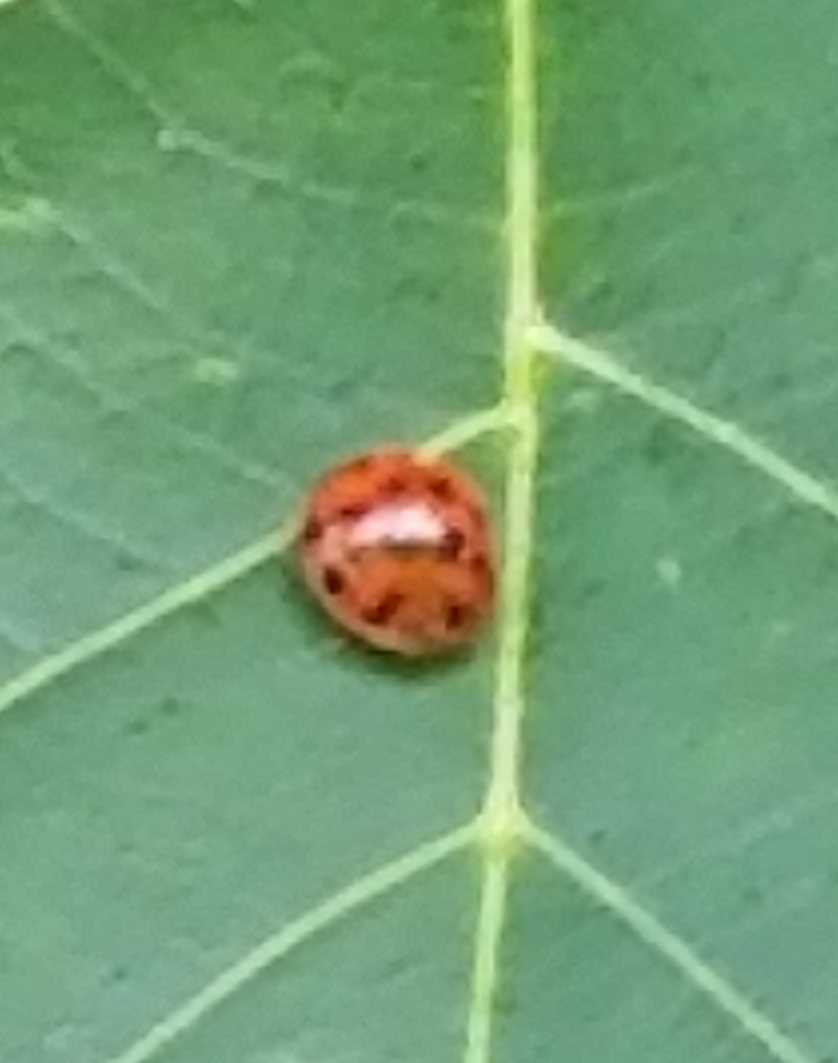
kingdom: Animalia
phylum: Arthropoda
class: Insecta
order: Coleoptera
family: Coccinellidae
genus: Harmonia
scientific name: Harmonia axyridis
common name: Harlequin ladybird
